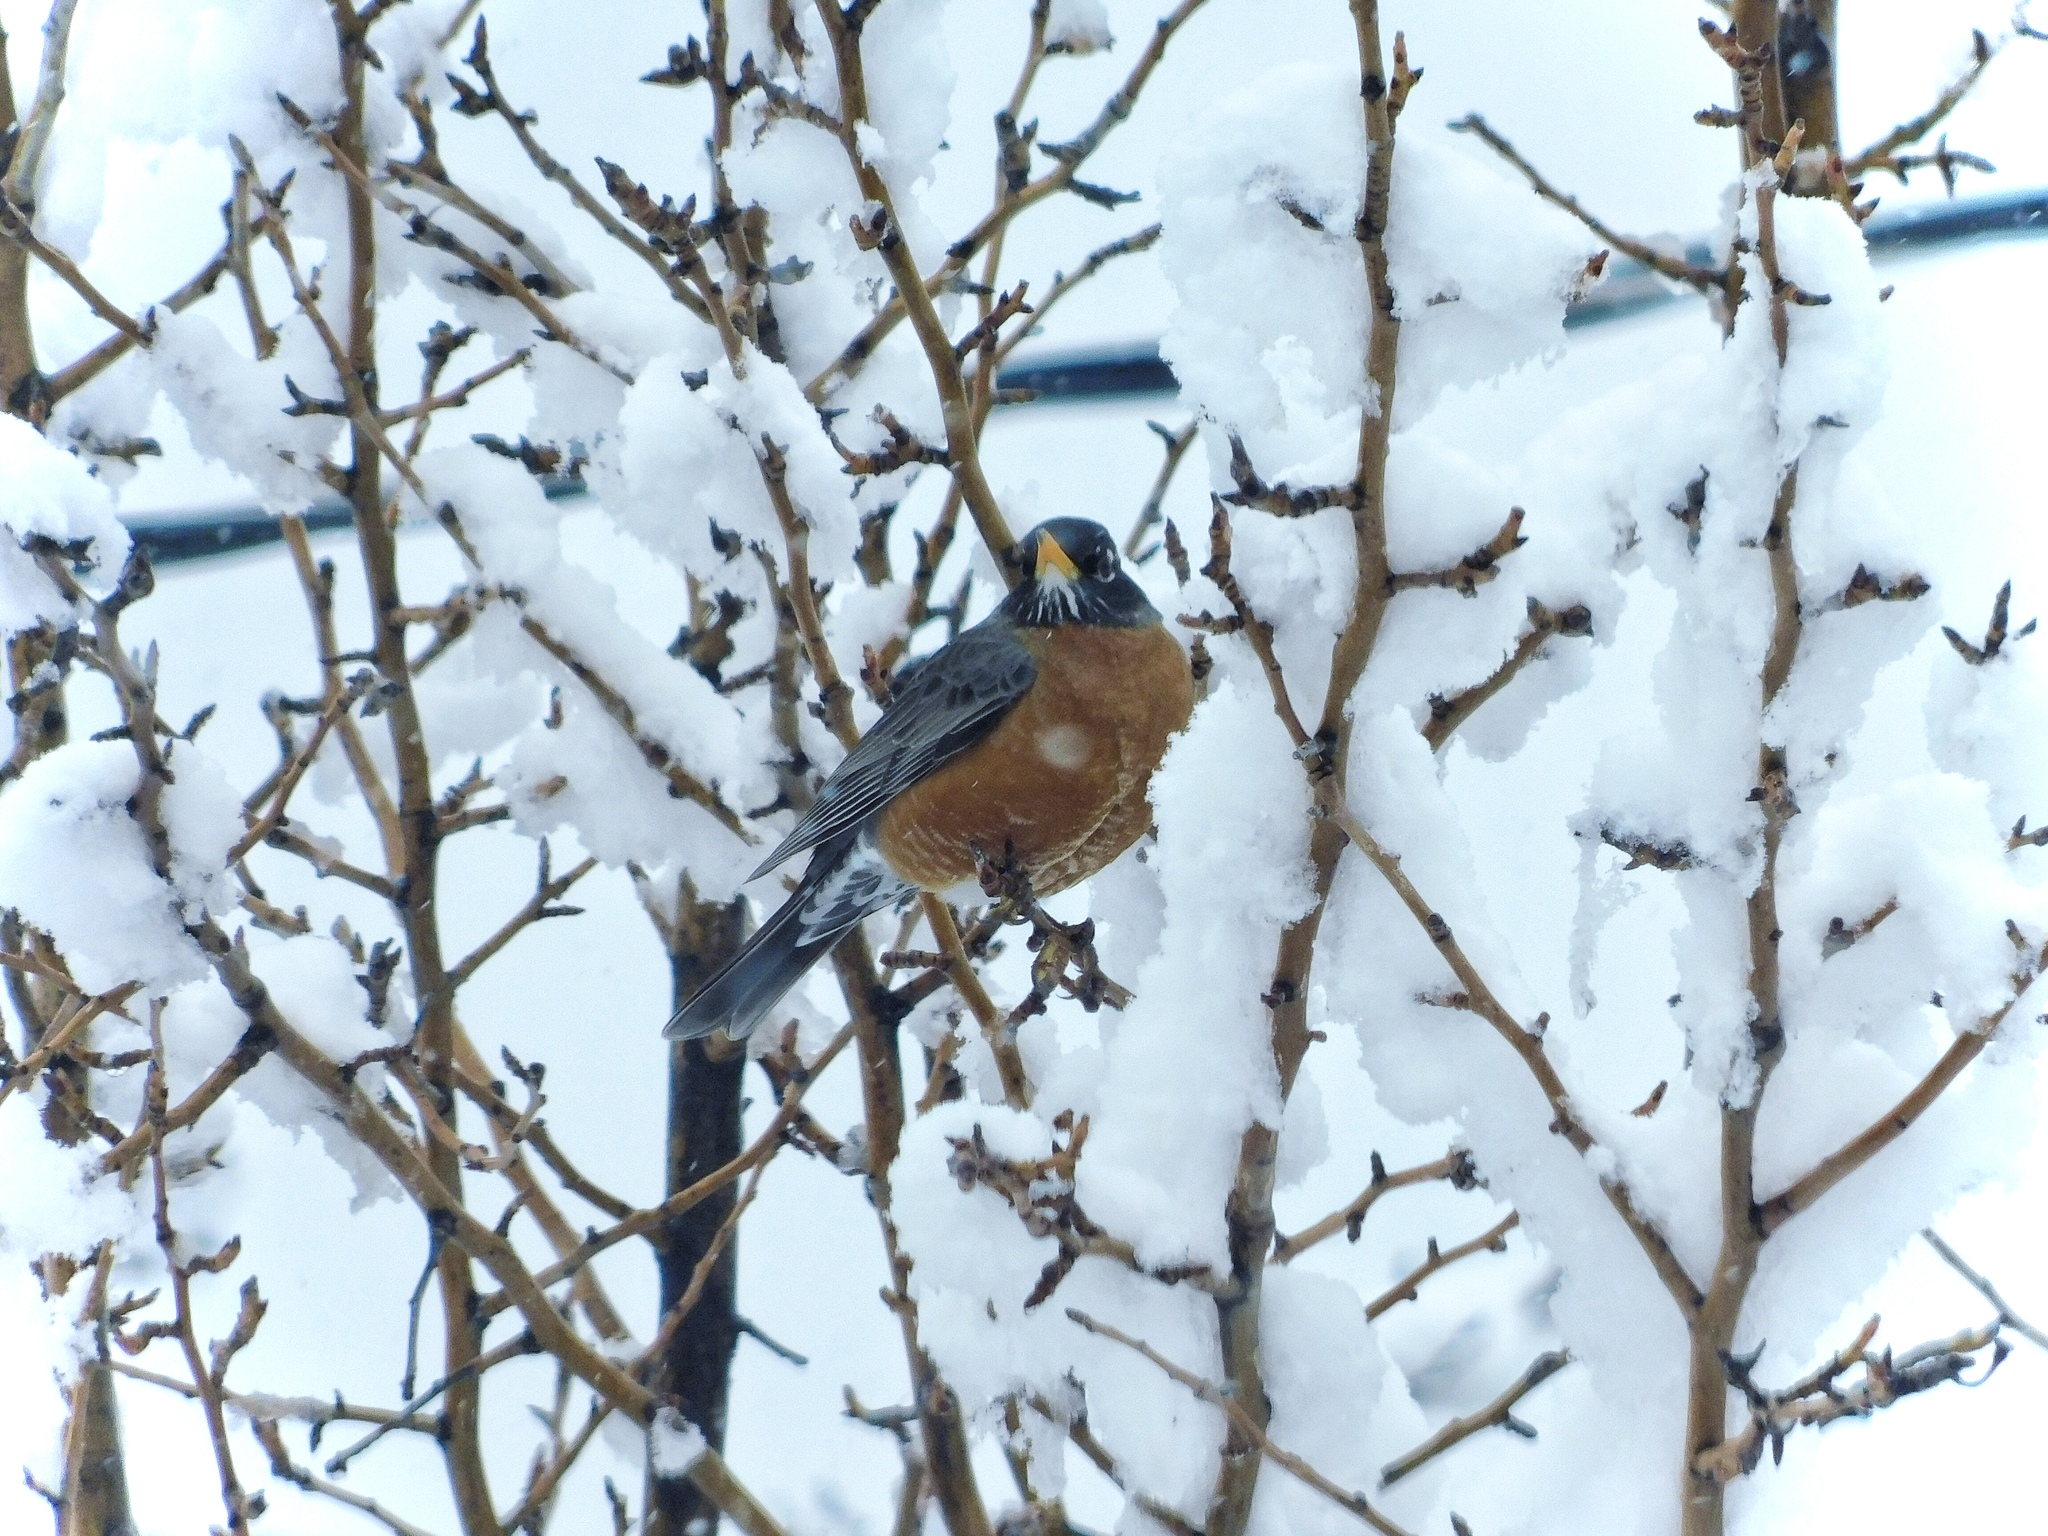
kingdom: Animalia
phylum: Chordata
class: Aves
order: Passeriformes
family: Turdidae
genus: Turdus
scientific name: Turdus migratorius
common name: American robin
